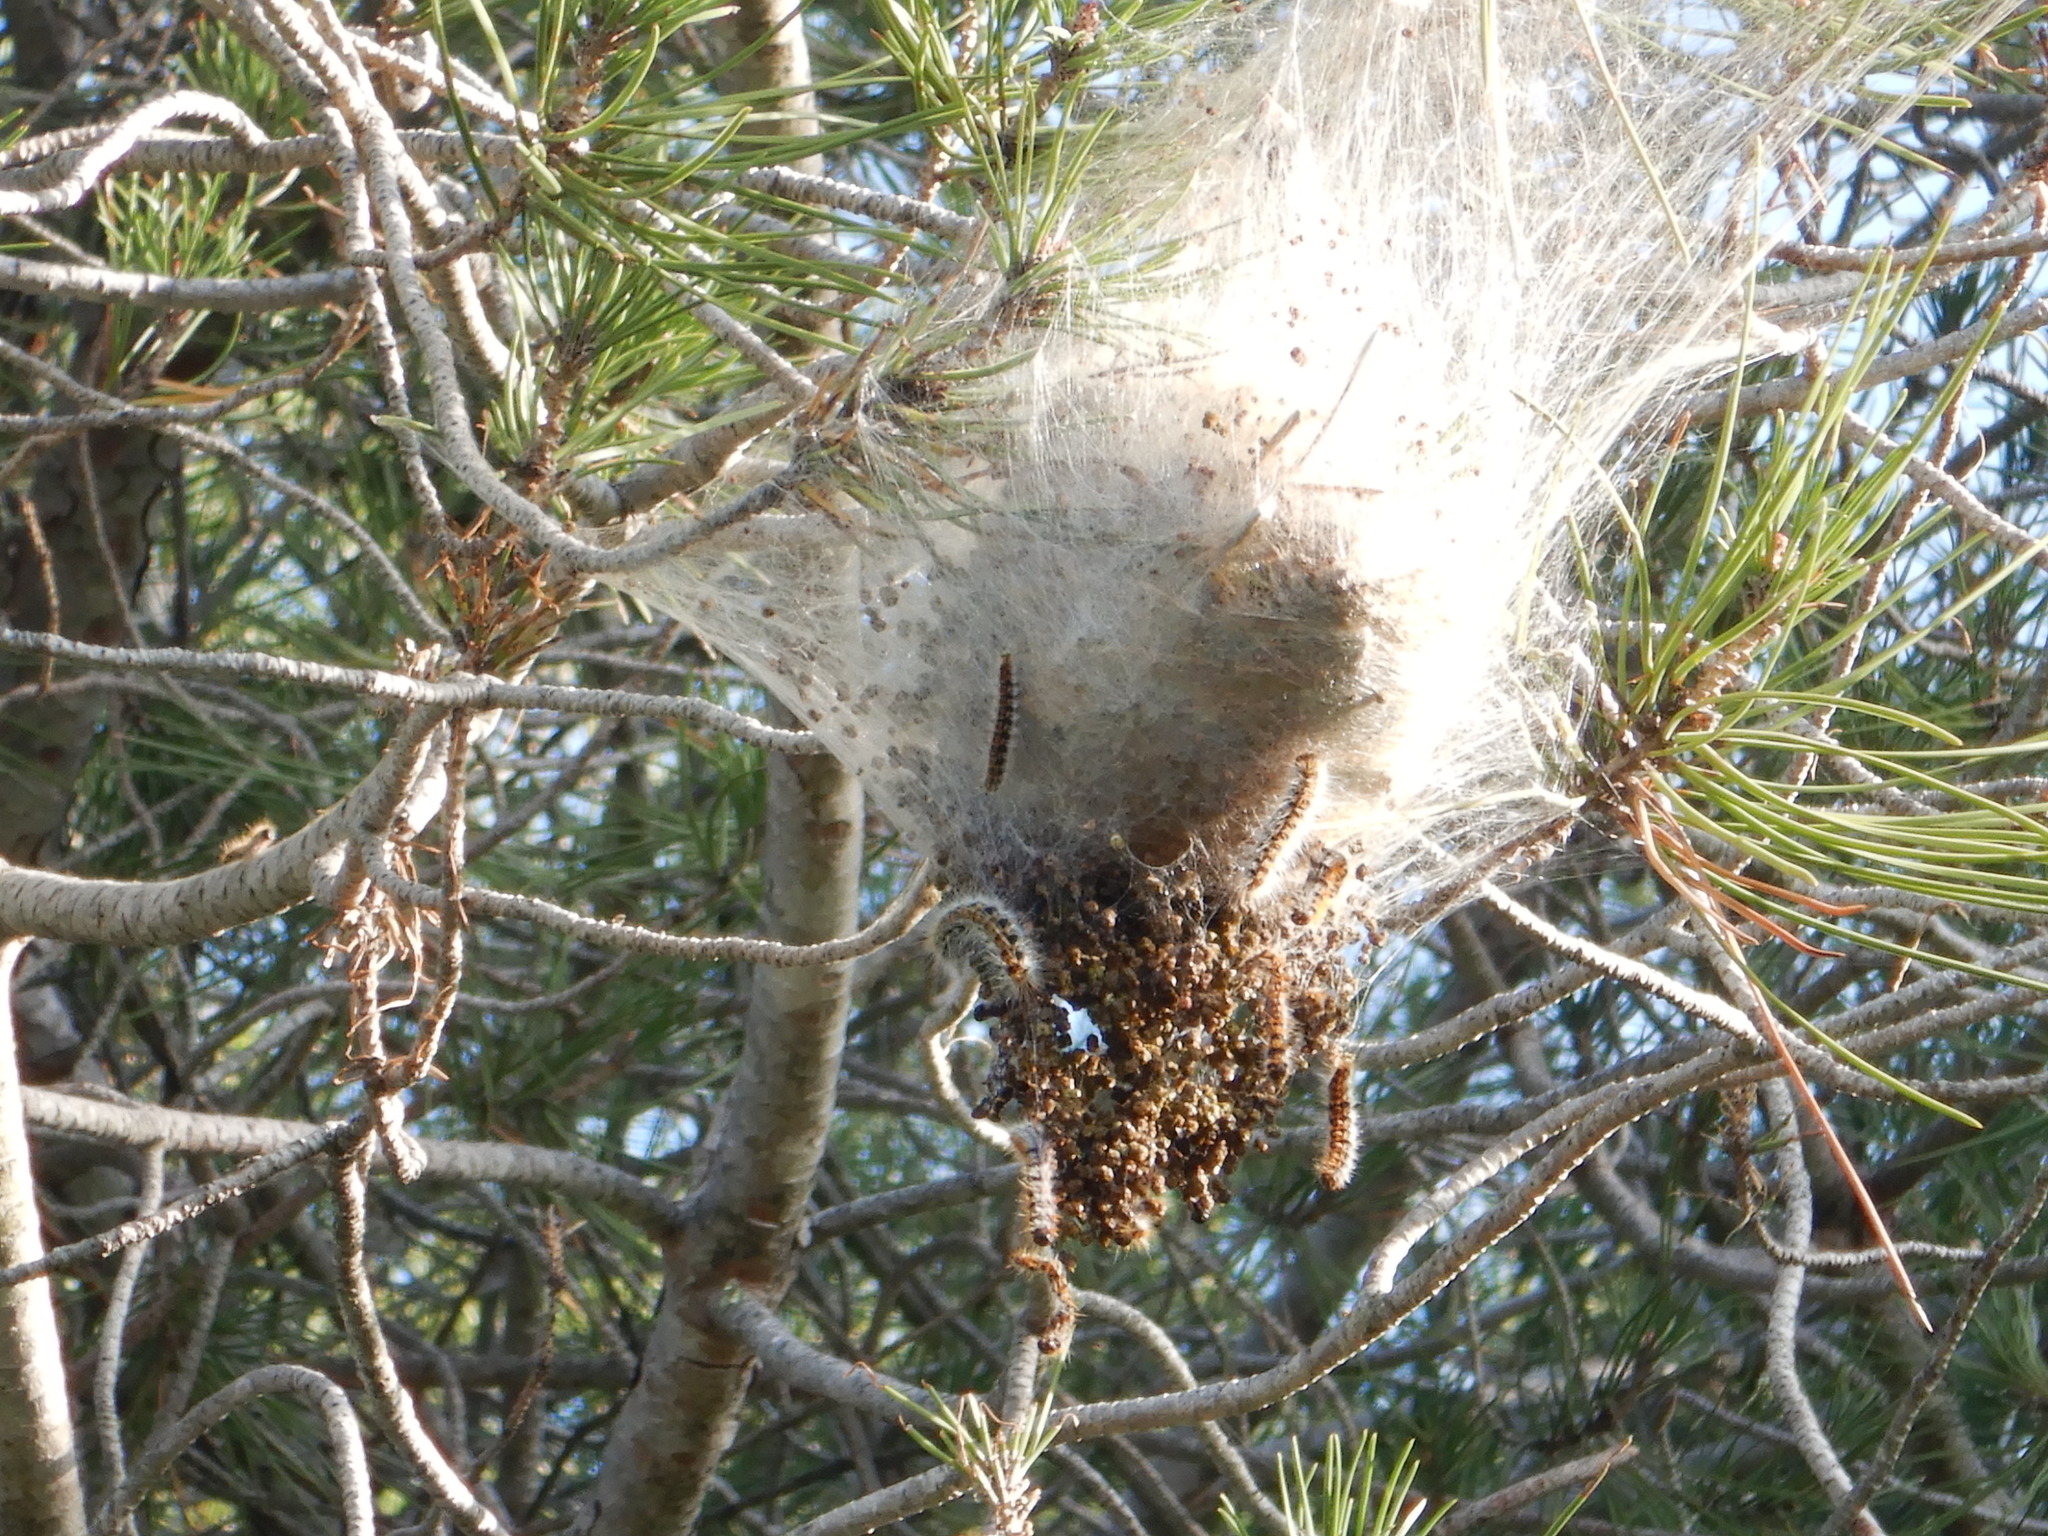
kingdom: Animalia
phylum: Arthropoda
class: Insecta
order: Lepidoptera
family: Notodontidae
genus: Thaumetopoea
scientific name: Thaumetopoea pityocampa
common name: Pine processionary
